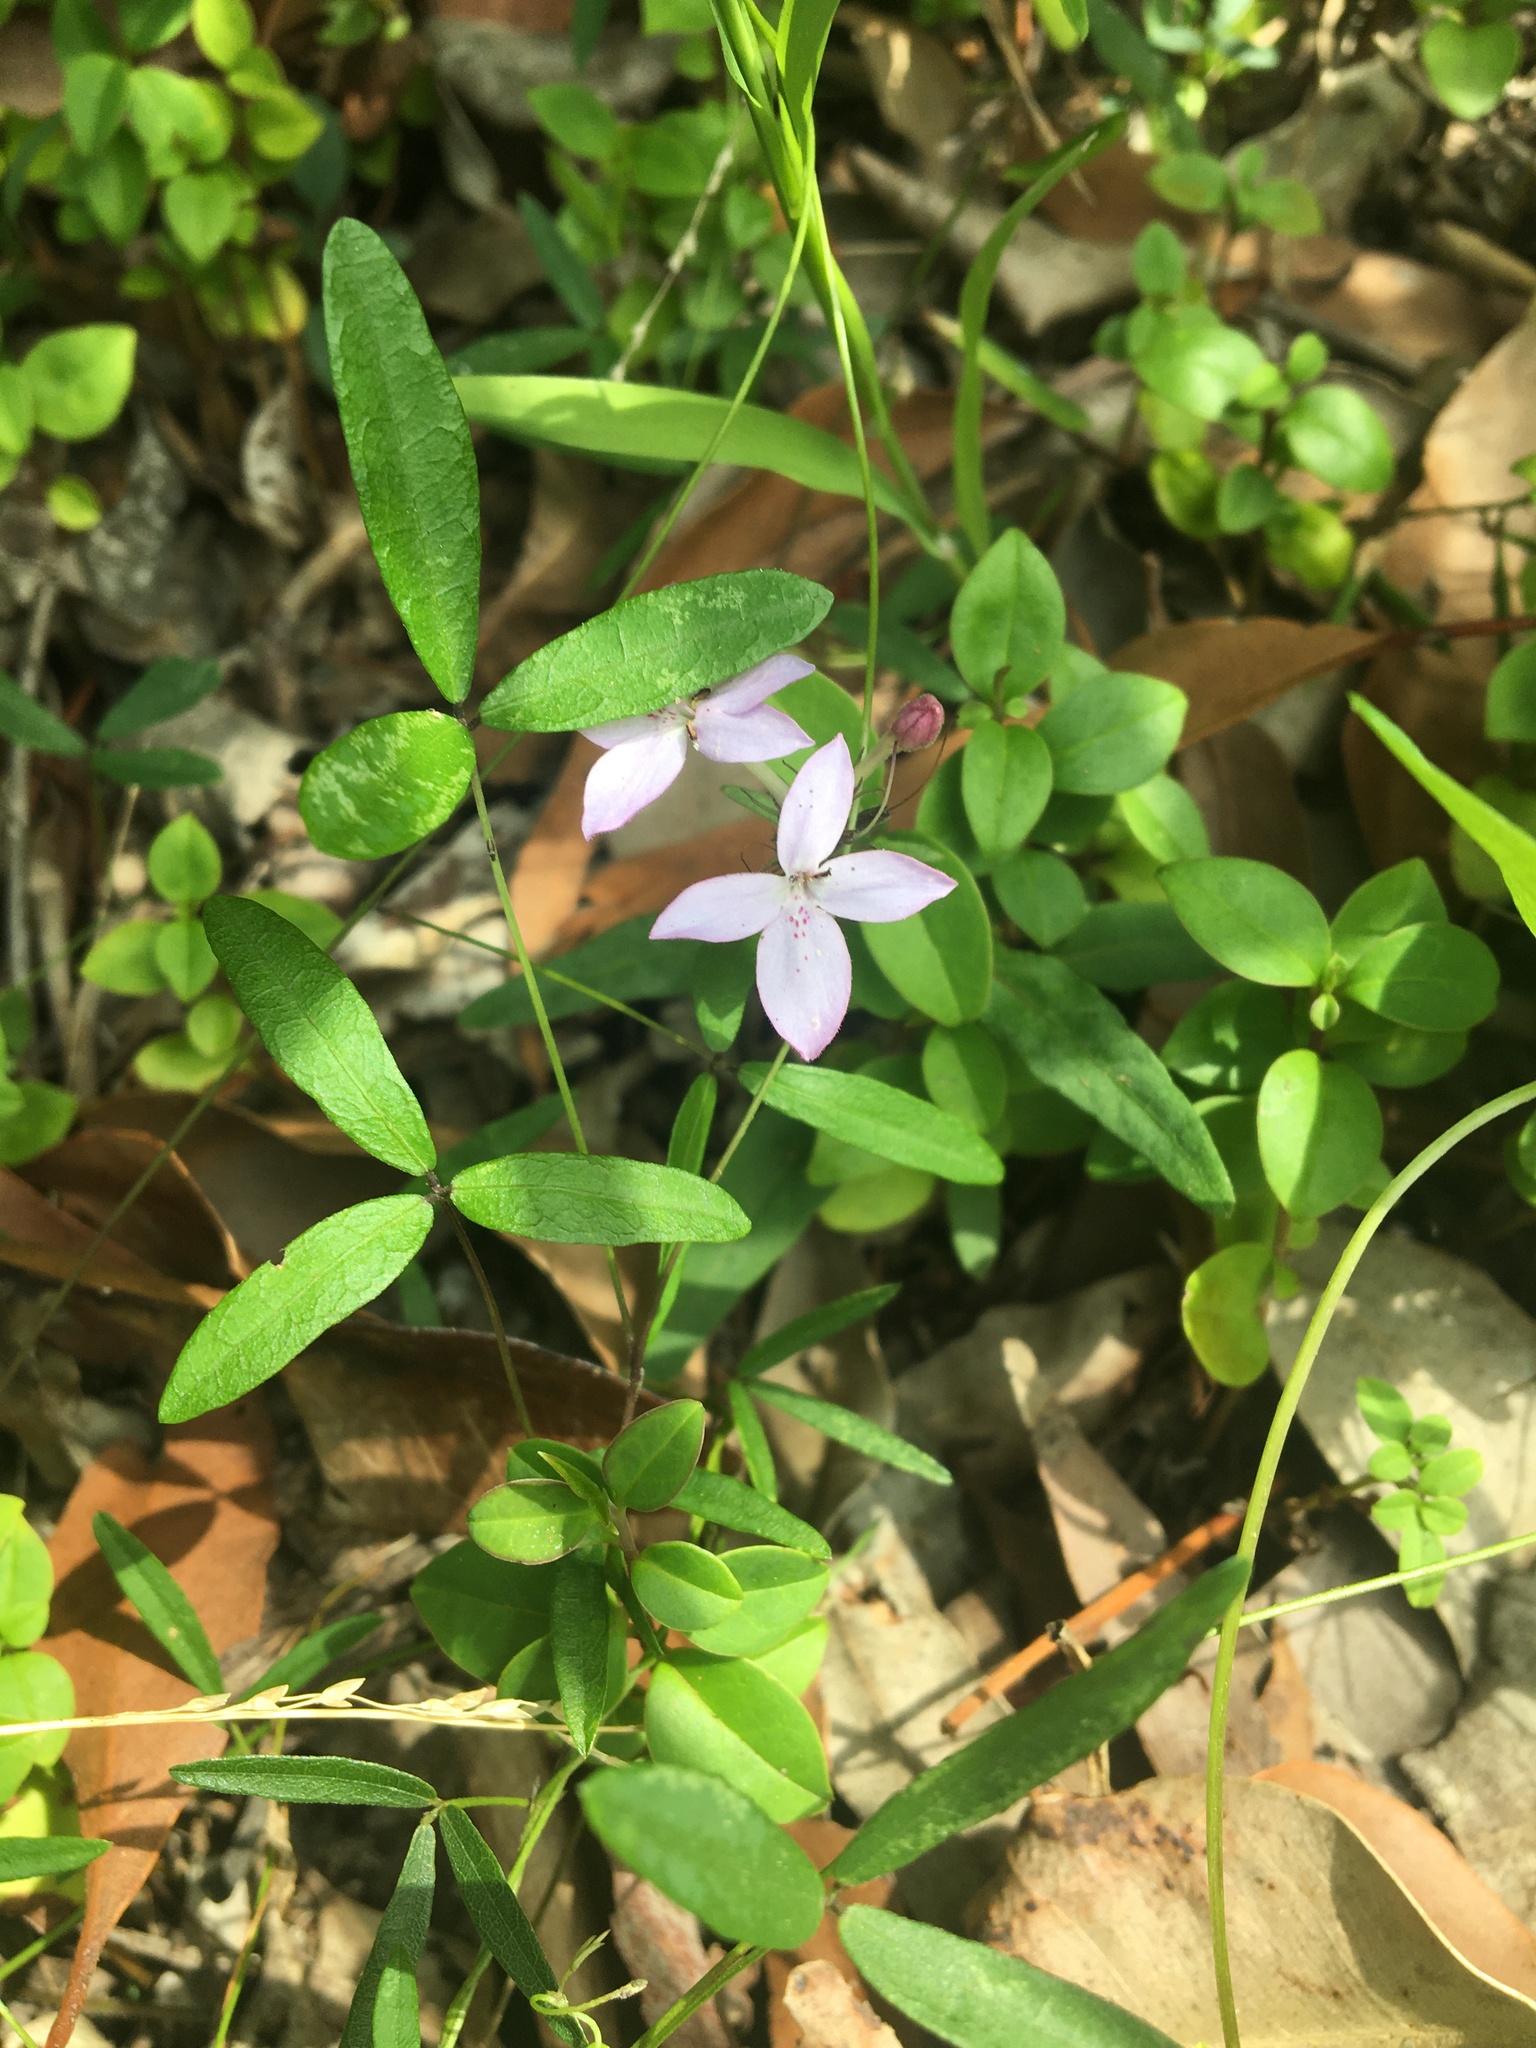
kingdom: Plantae
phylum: Tracheophyta
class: Magnoliopsida
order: Lamiales
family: Acanthaceae
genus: Pseuderanthemum
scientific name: Pseuderanthemum variabile
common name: Night and afternoon
